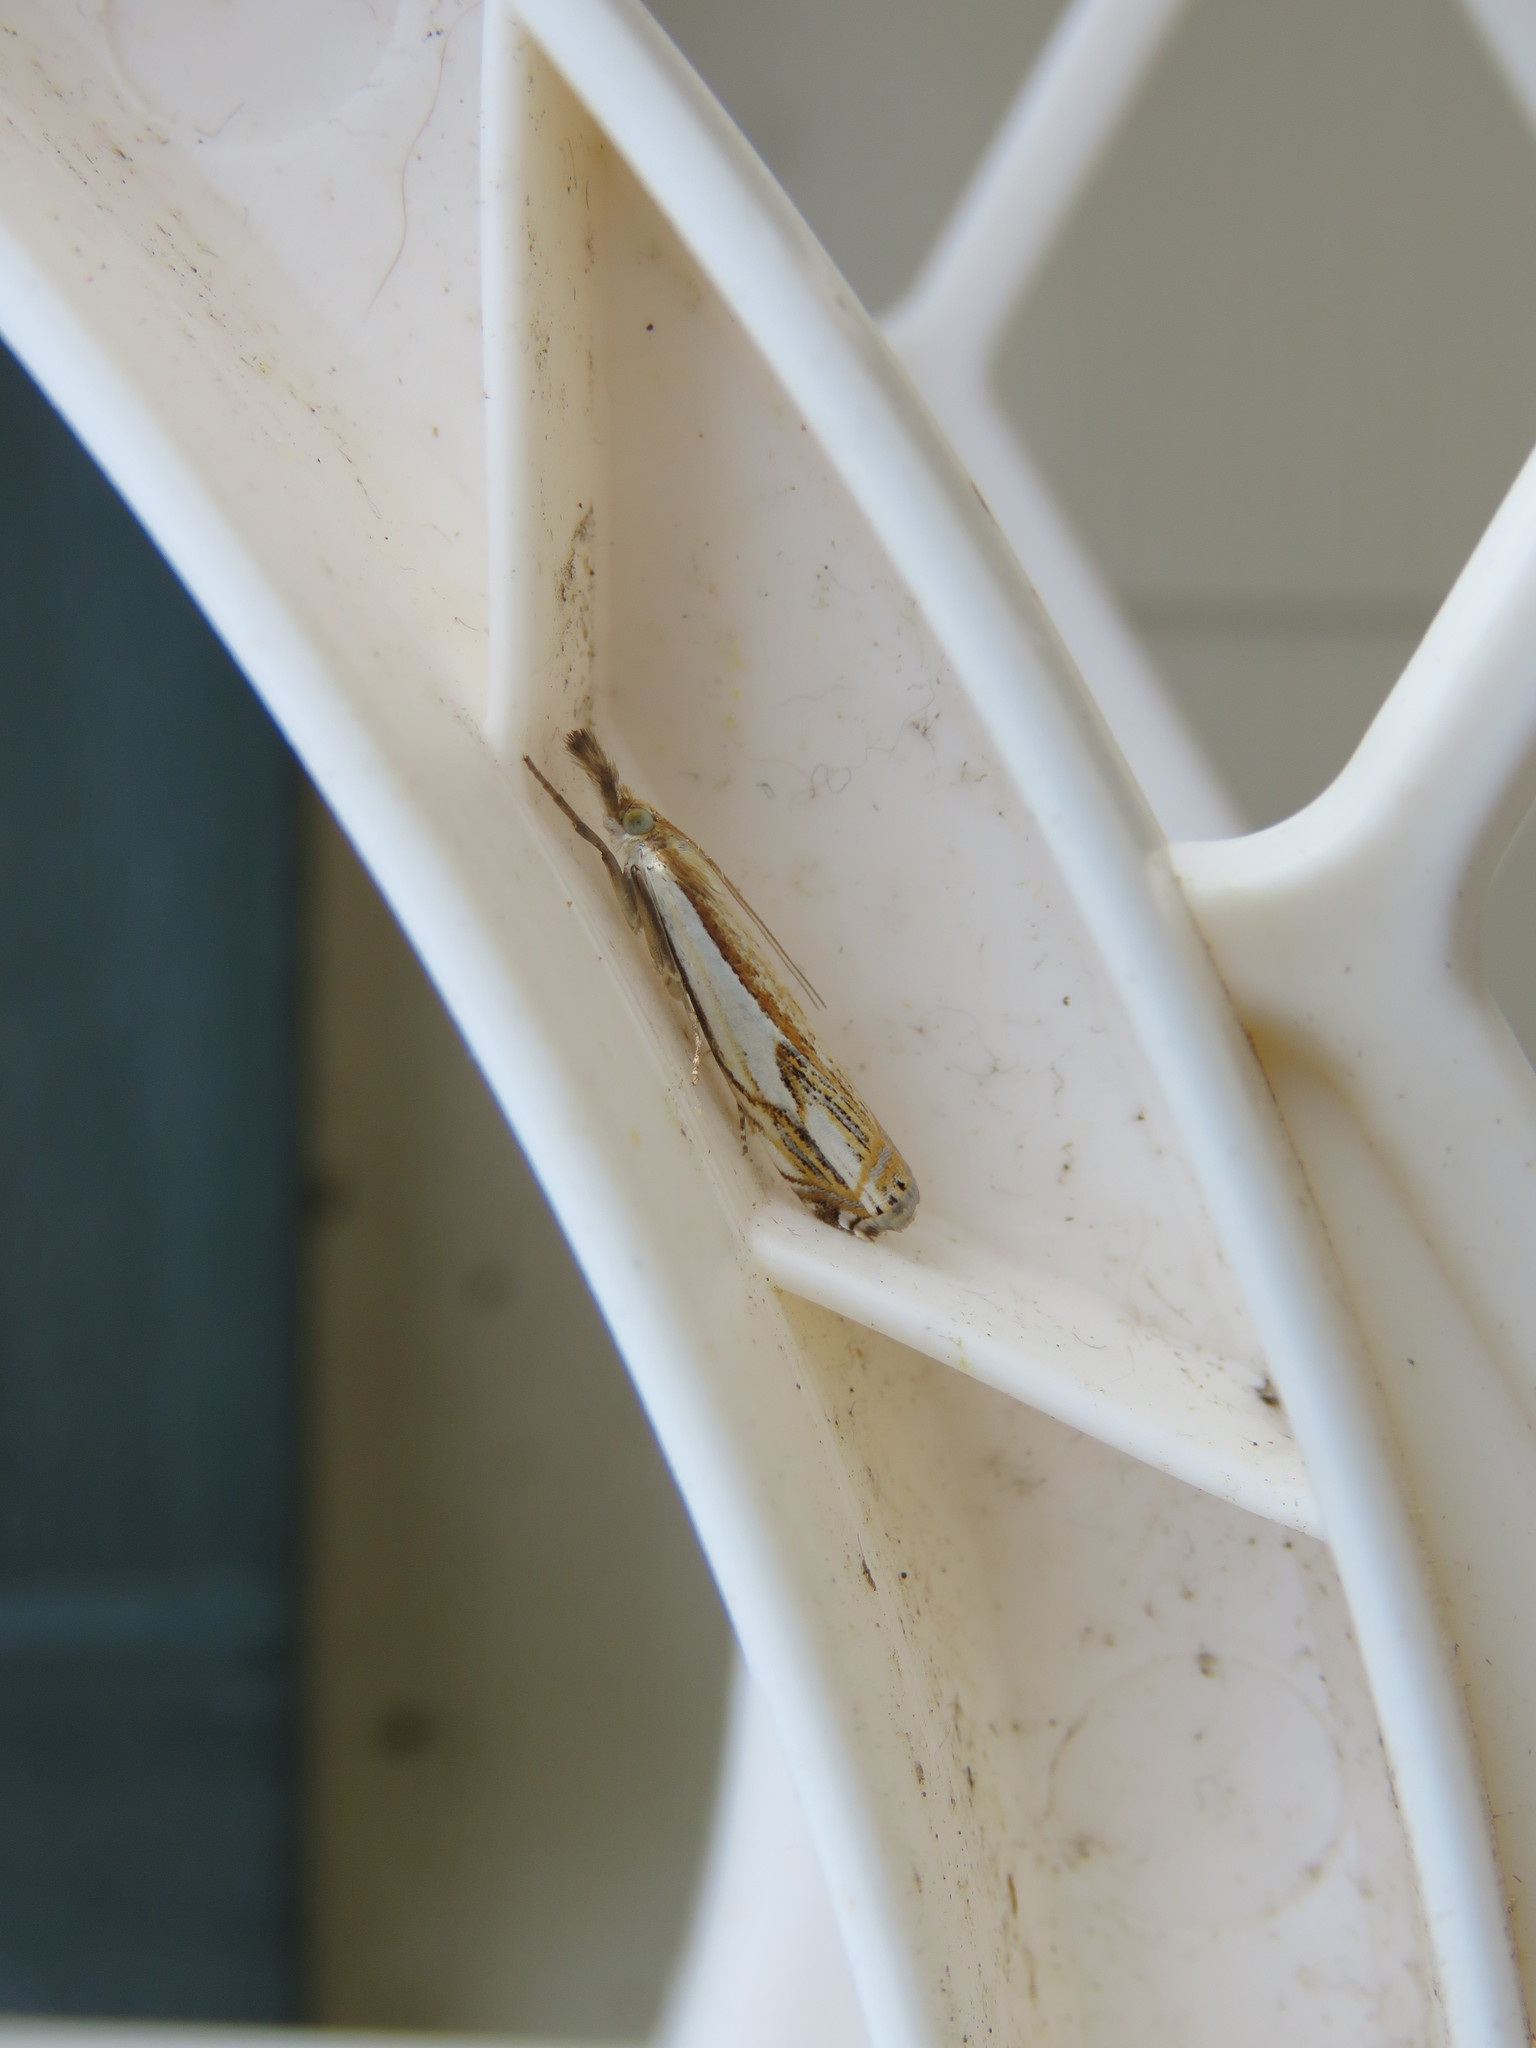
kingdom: Animalia
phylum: Arthropoda
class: Insecta
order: Lepidoptera
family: Crambidae
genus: Crambus
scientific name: Crambus agitatellus
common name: Double-banded grass-veneer
